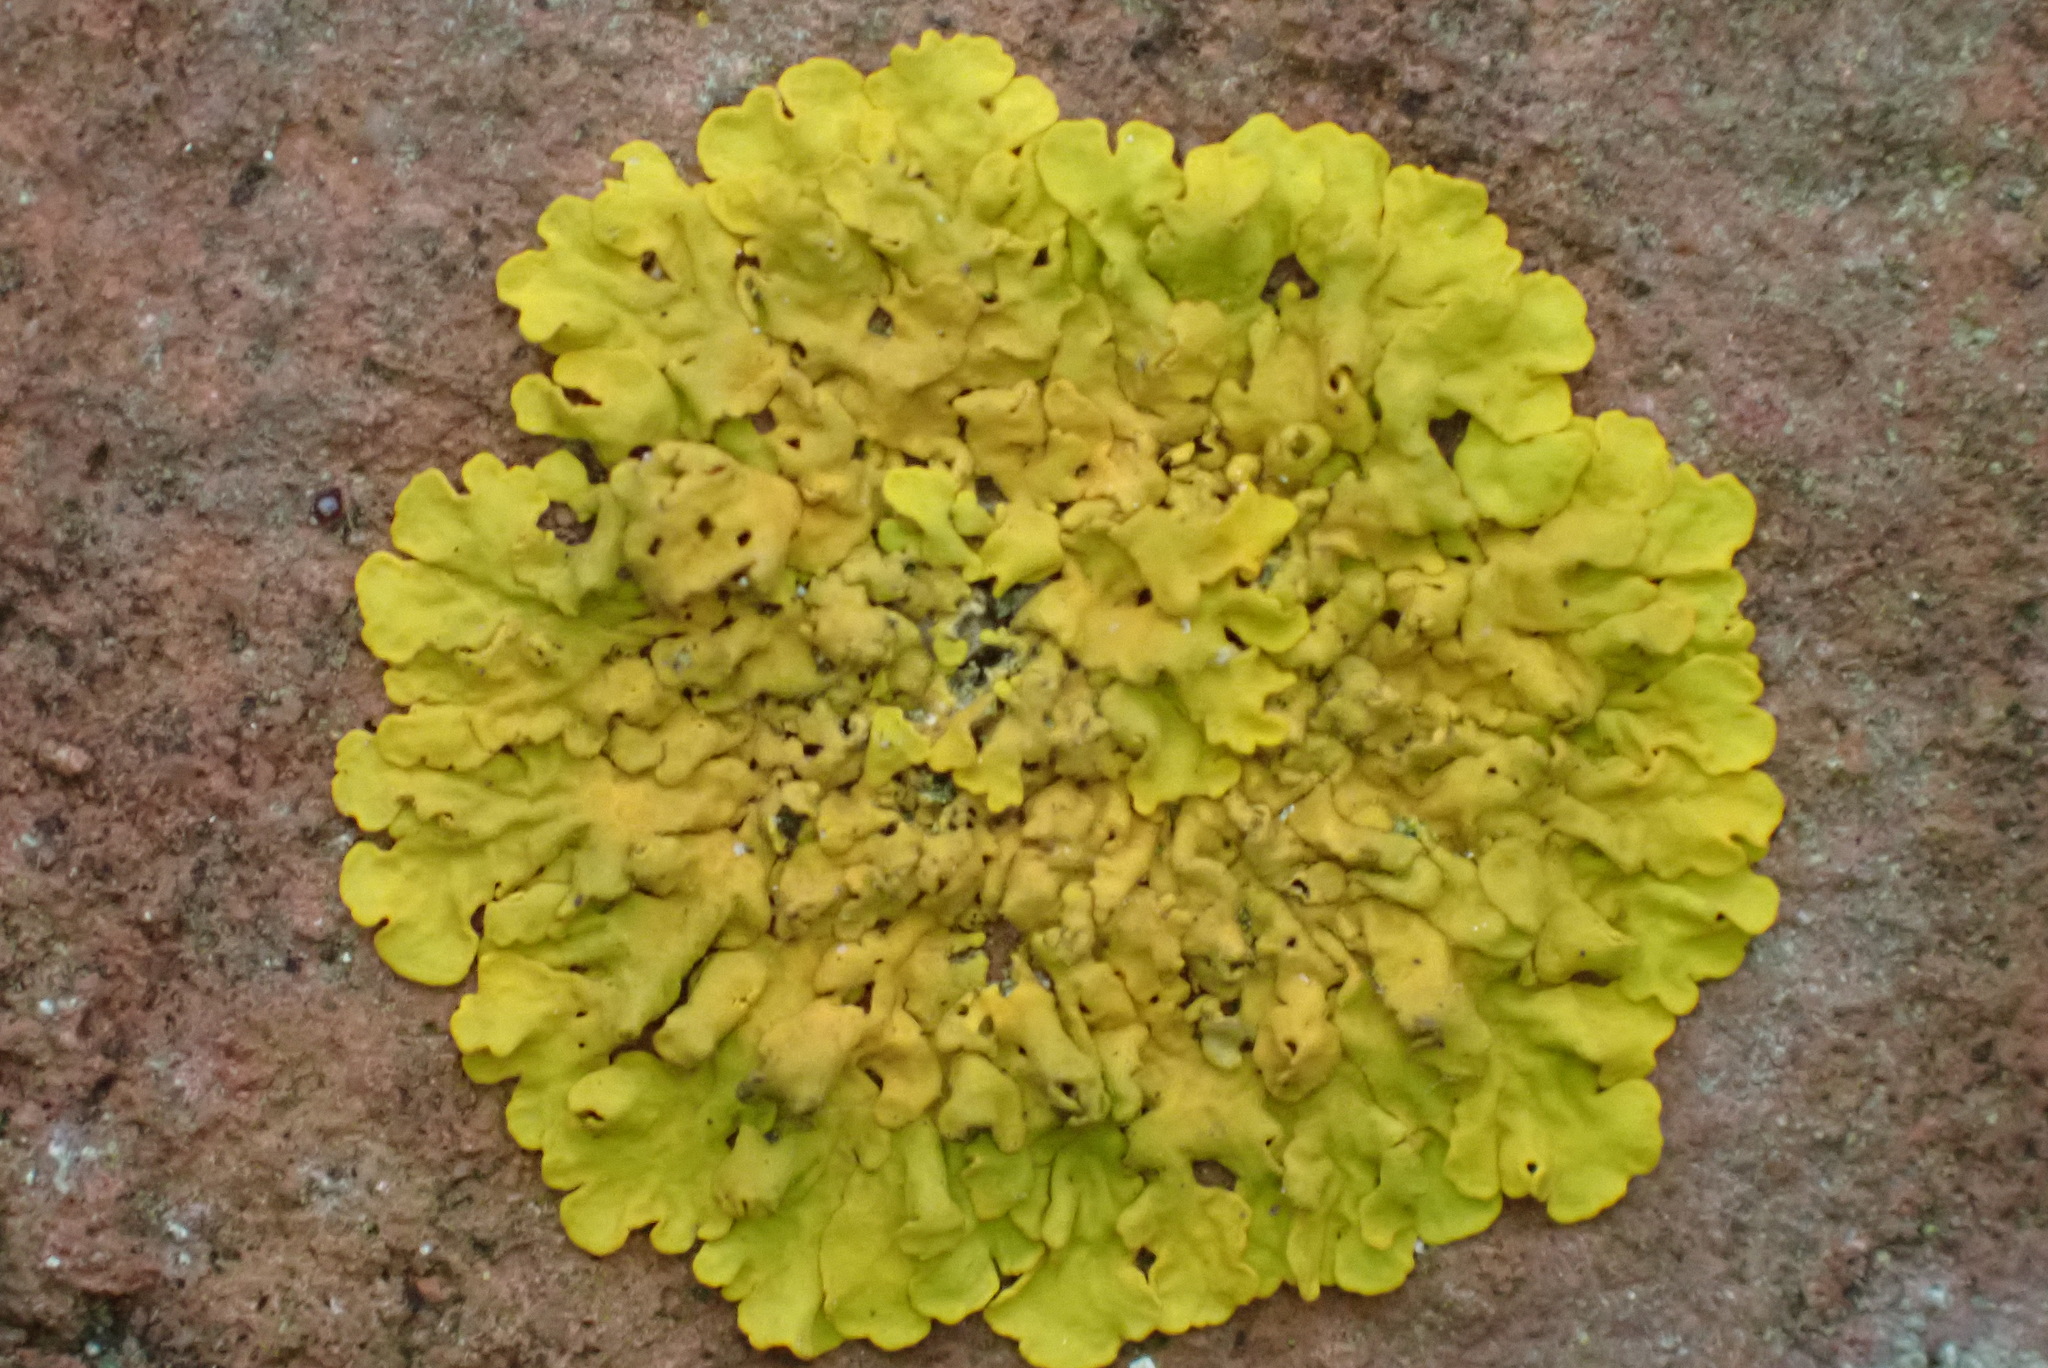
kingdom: Fungi
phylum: Ascomycota
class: Lecanoromycetes
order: Teloschistales
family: Teloschistaceae
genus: Xanthoria
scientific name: Xanthoria parietina
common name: Common orange lichen
